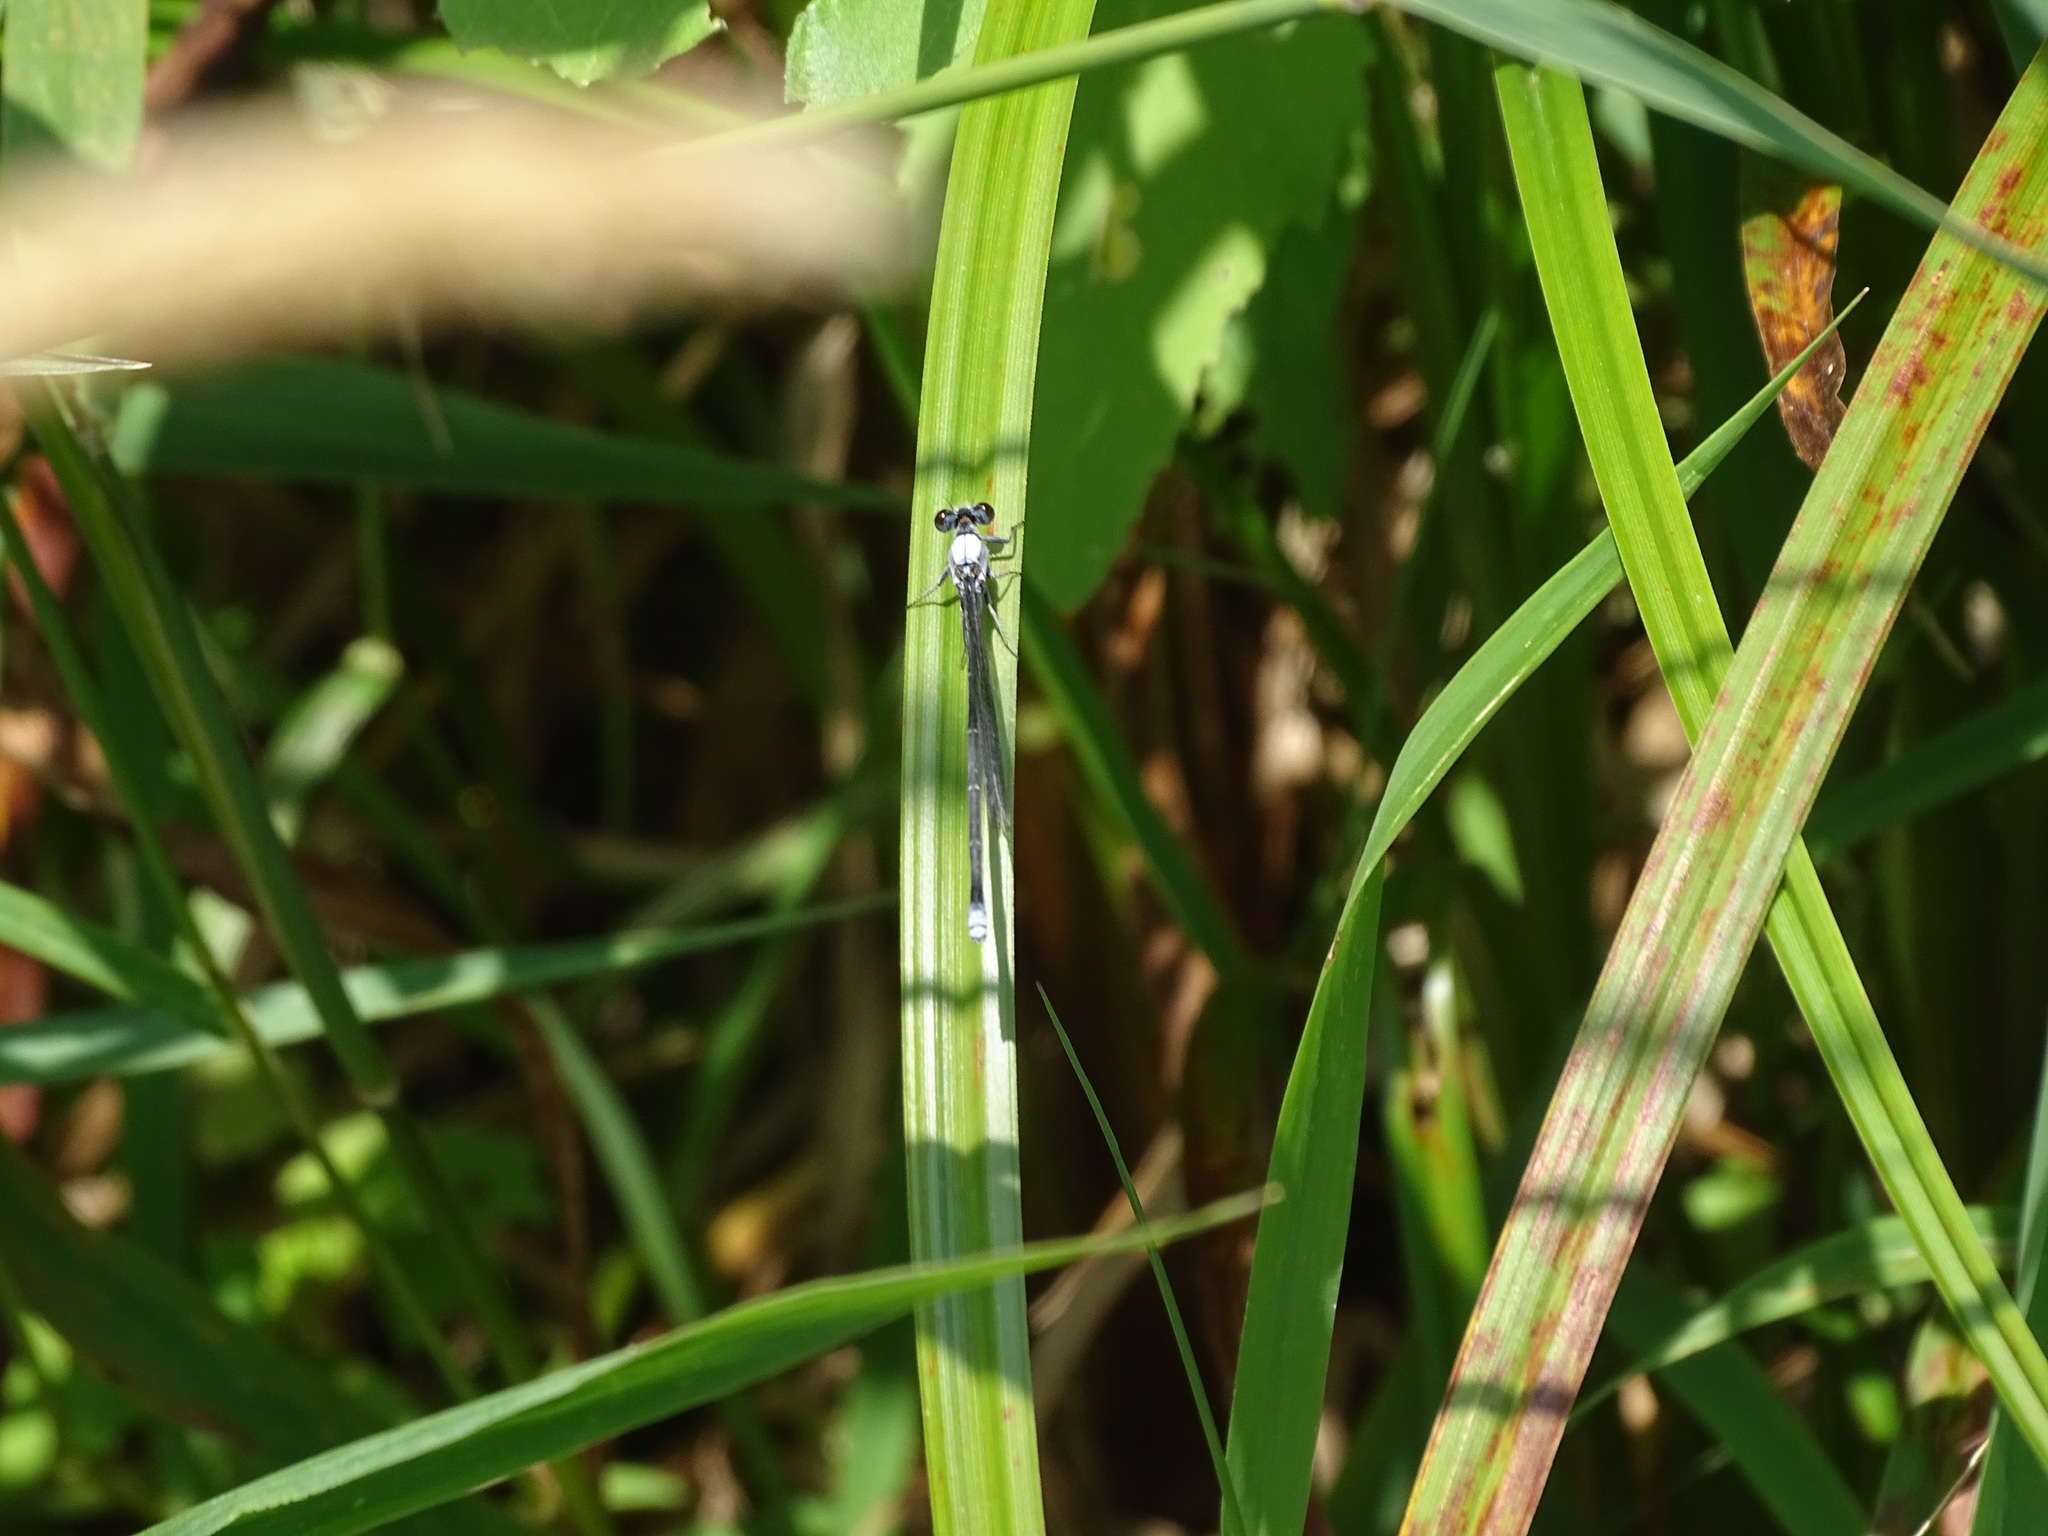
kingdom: Animalia
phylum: Arthropoda
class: Insecta
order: Odonata
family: Coenagrionidae
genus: Argia
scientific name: Argia moesta
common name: Powdered dancer
